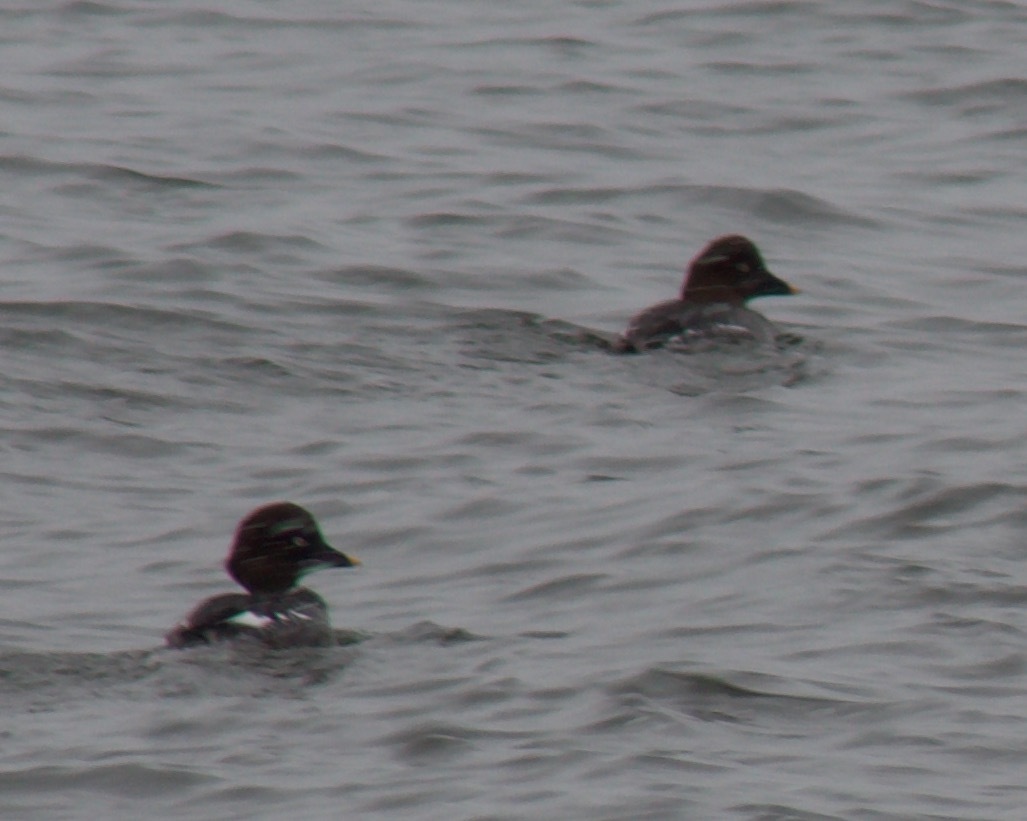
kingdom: Animalia
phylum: Chordata
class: Aves
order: Anseriformes
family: Anatidae
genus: Bucephala
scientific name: Bucephala clangula
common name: Common goldeneye
